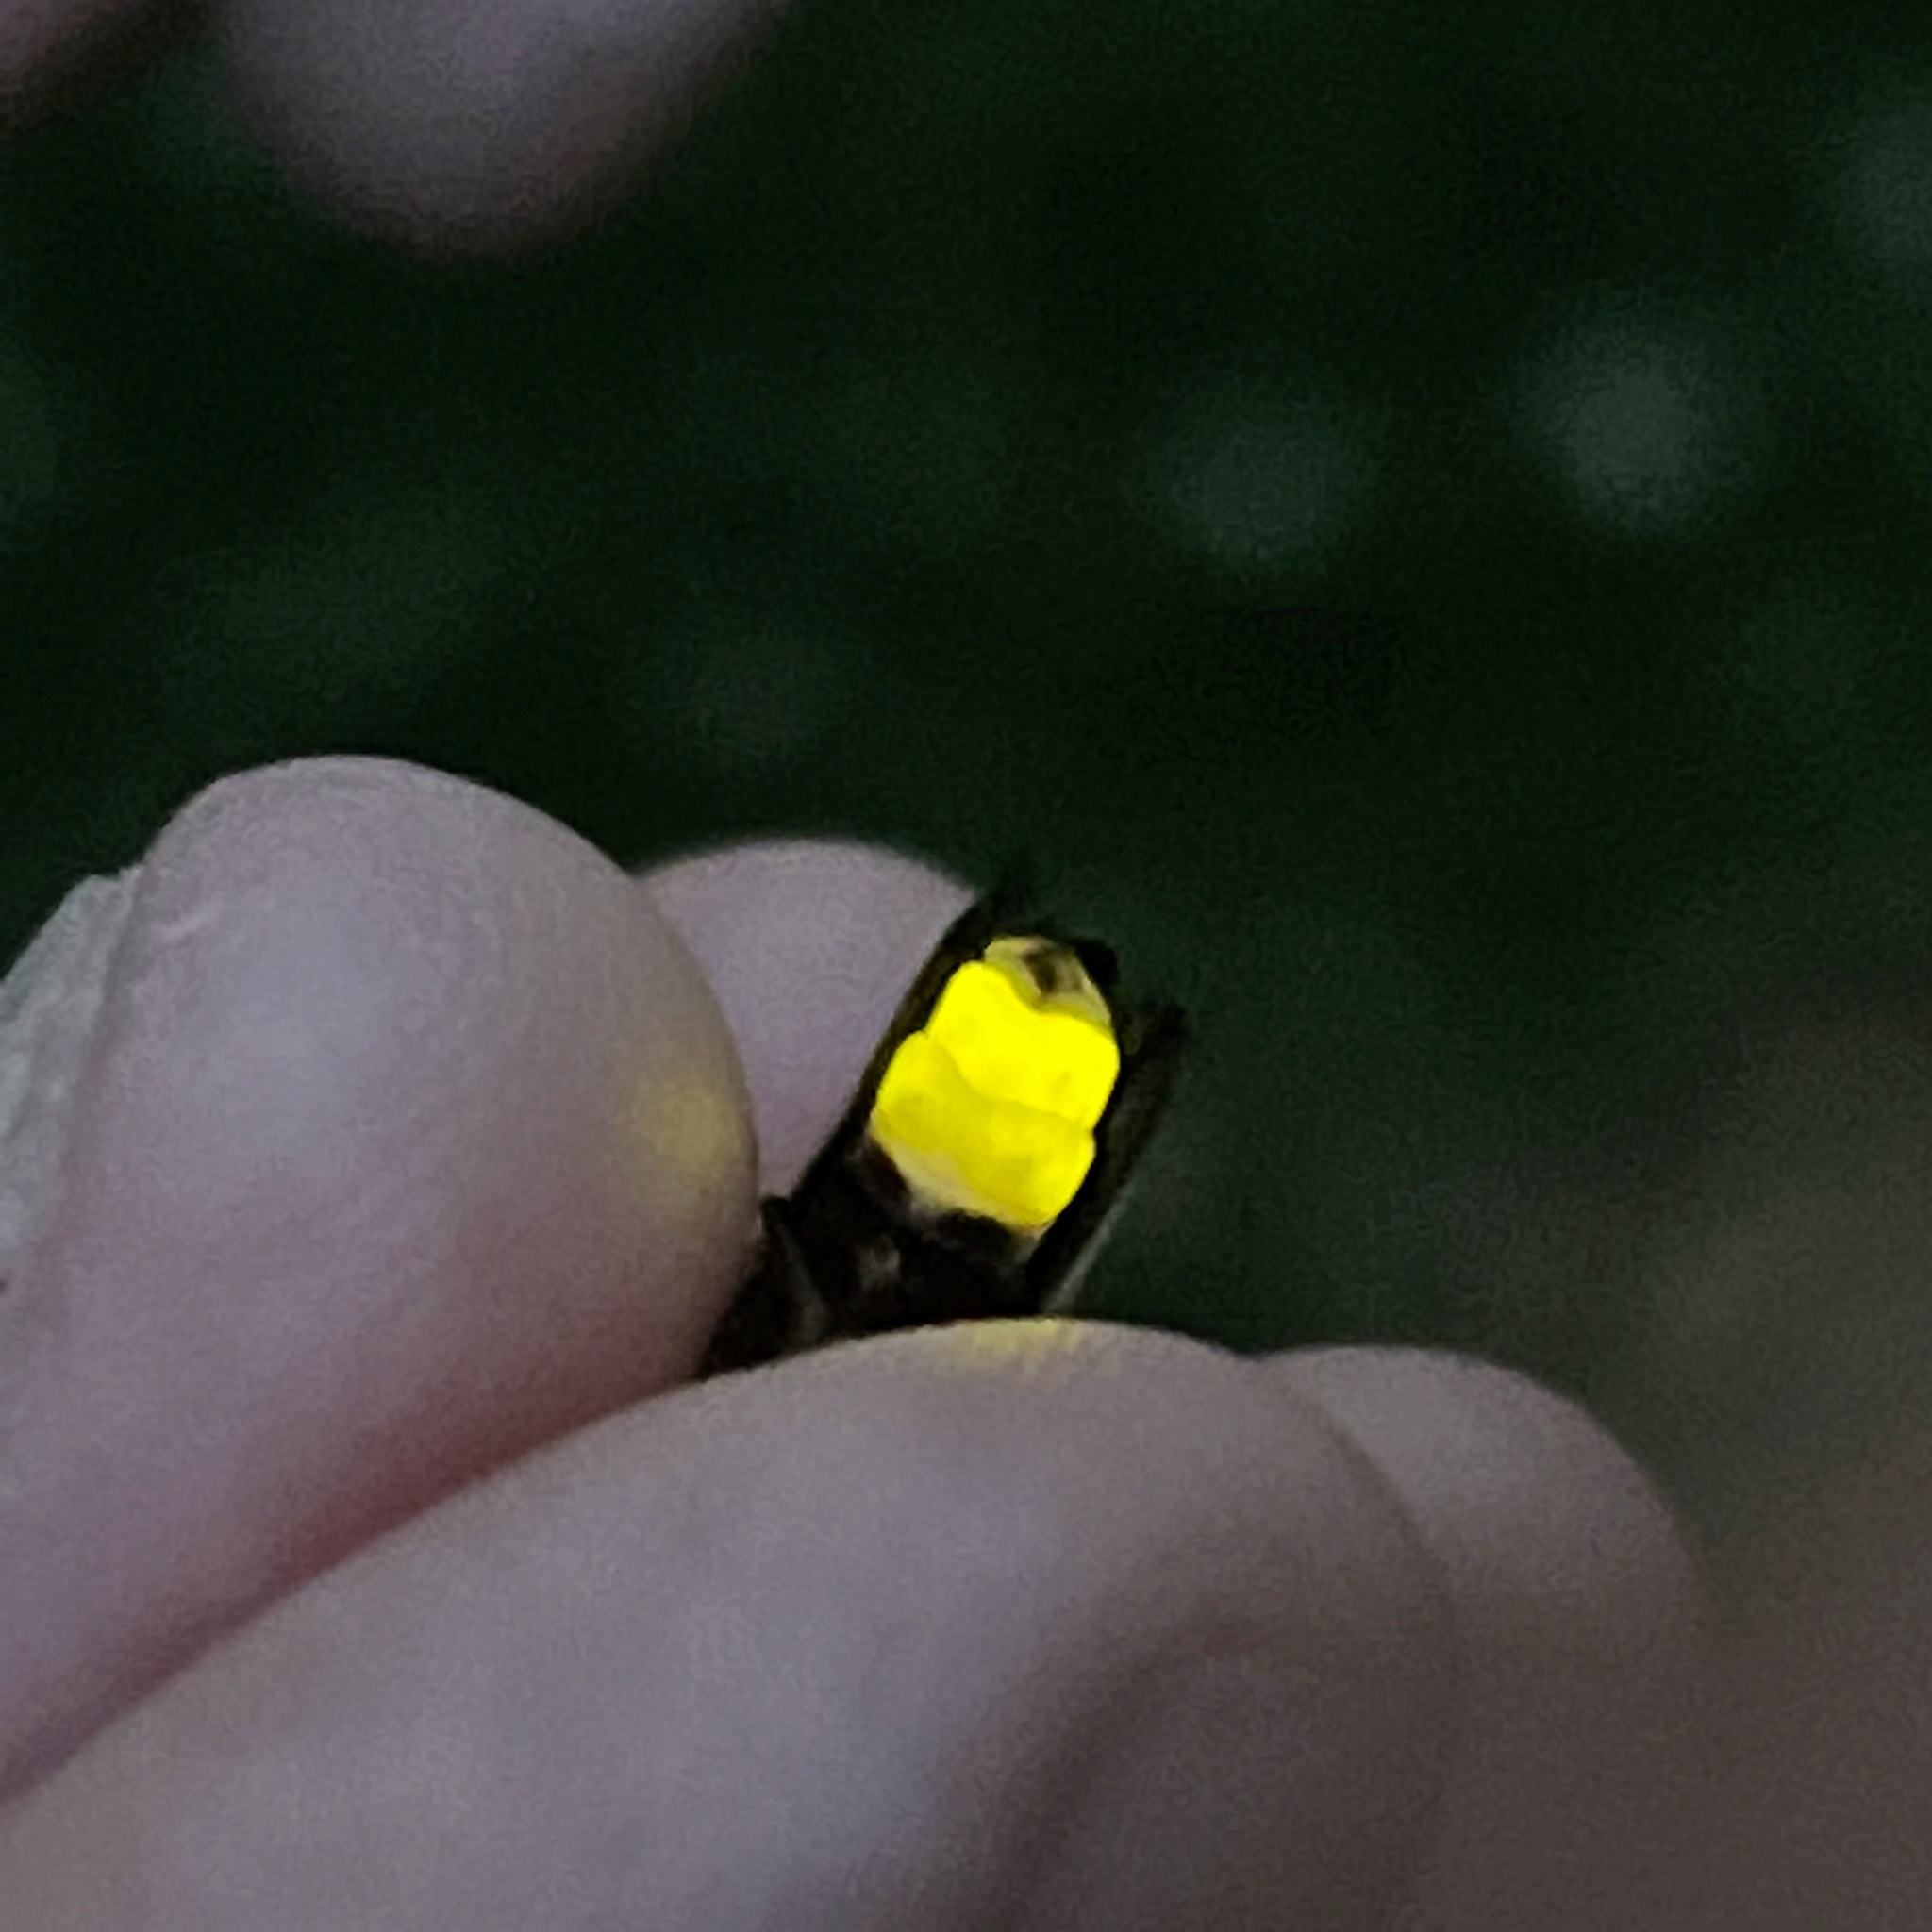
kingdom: Animalia
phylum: Arthropoda
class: Insecta
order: Coleoptera
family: Lampyridae
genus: Photinus
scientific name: Photinus pyralis
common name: Big dipper firefly
